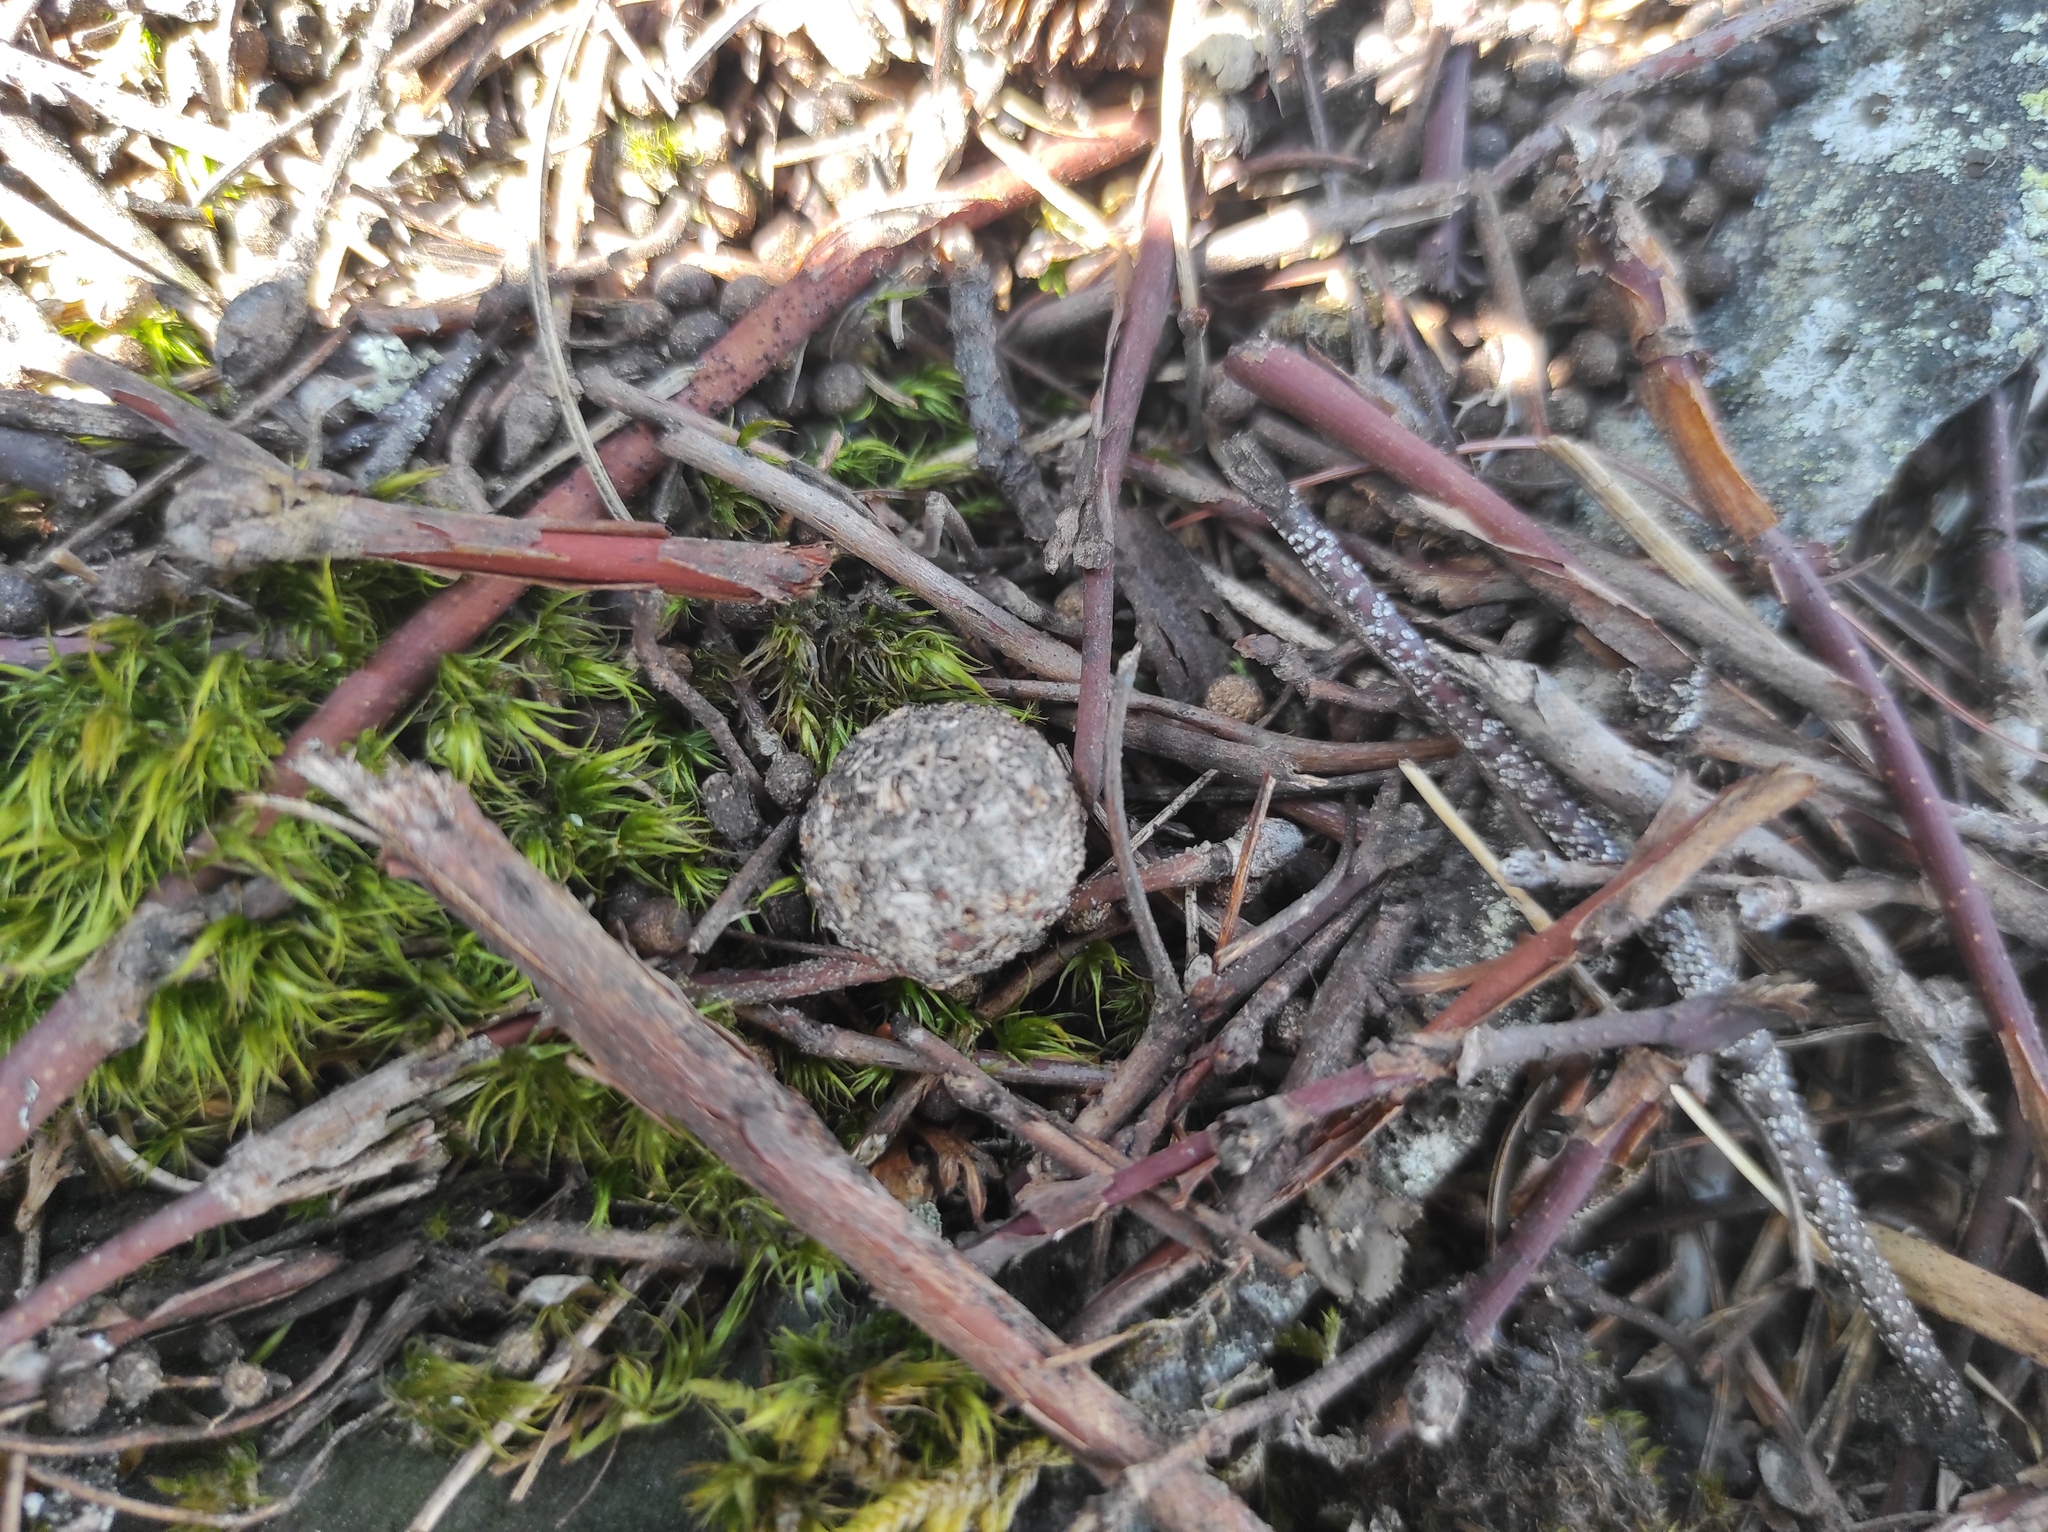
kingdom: Animalia
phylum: Chordata
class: Mammalia
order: Lagomorpha
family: Leporidae
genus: Lepus
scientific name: Lepus timidus
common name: Mountain hare
